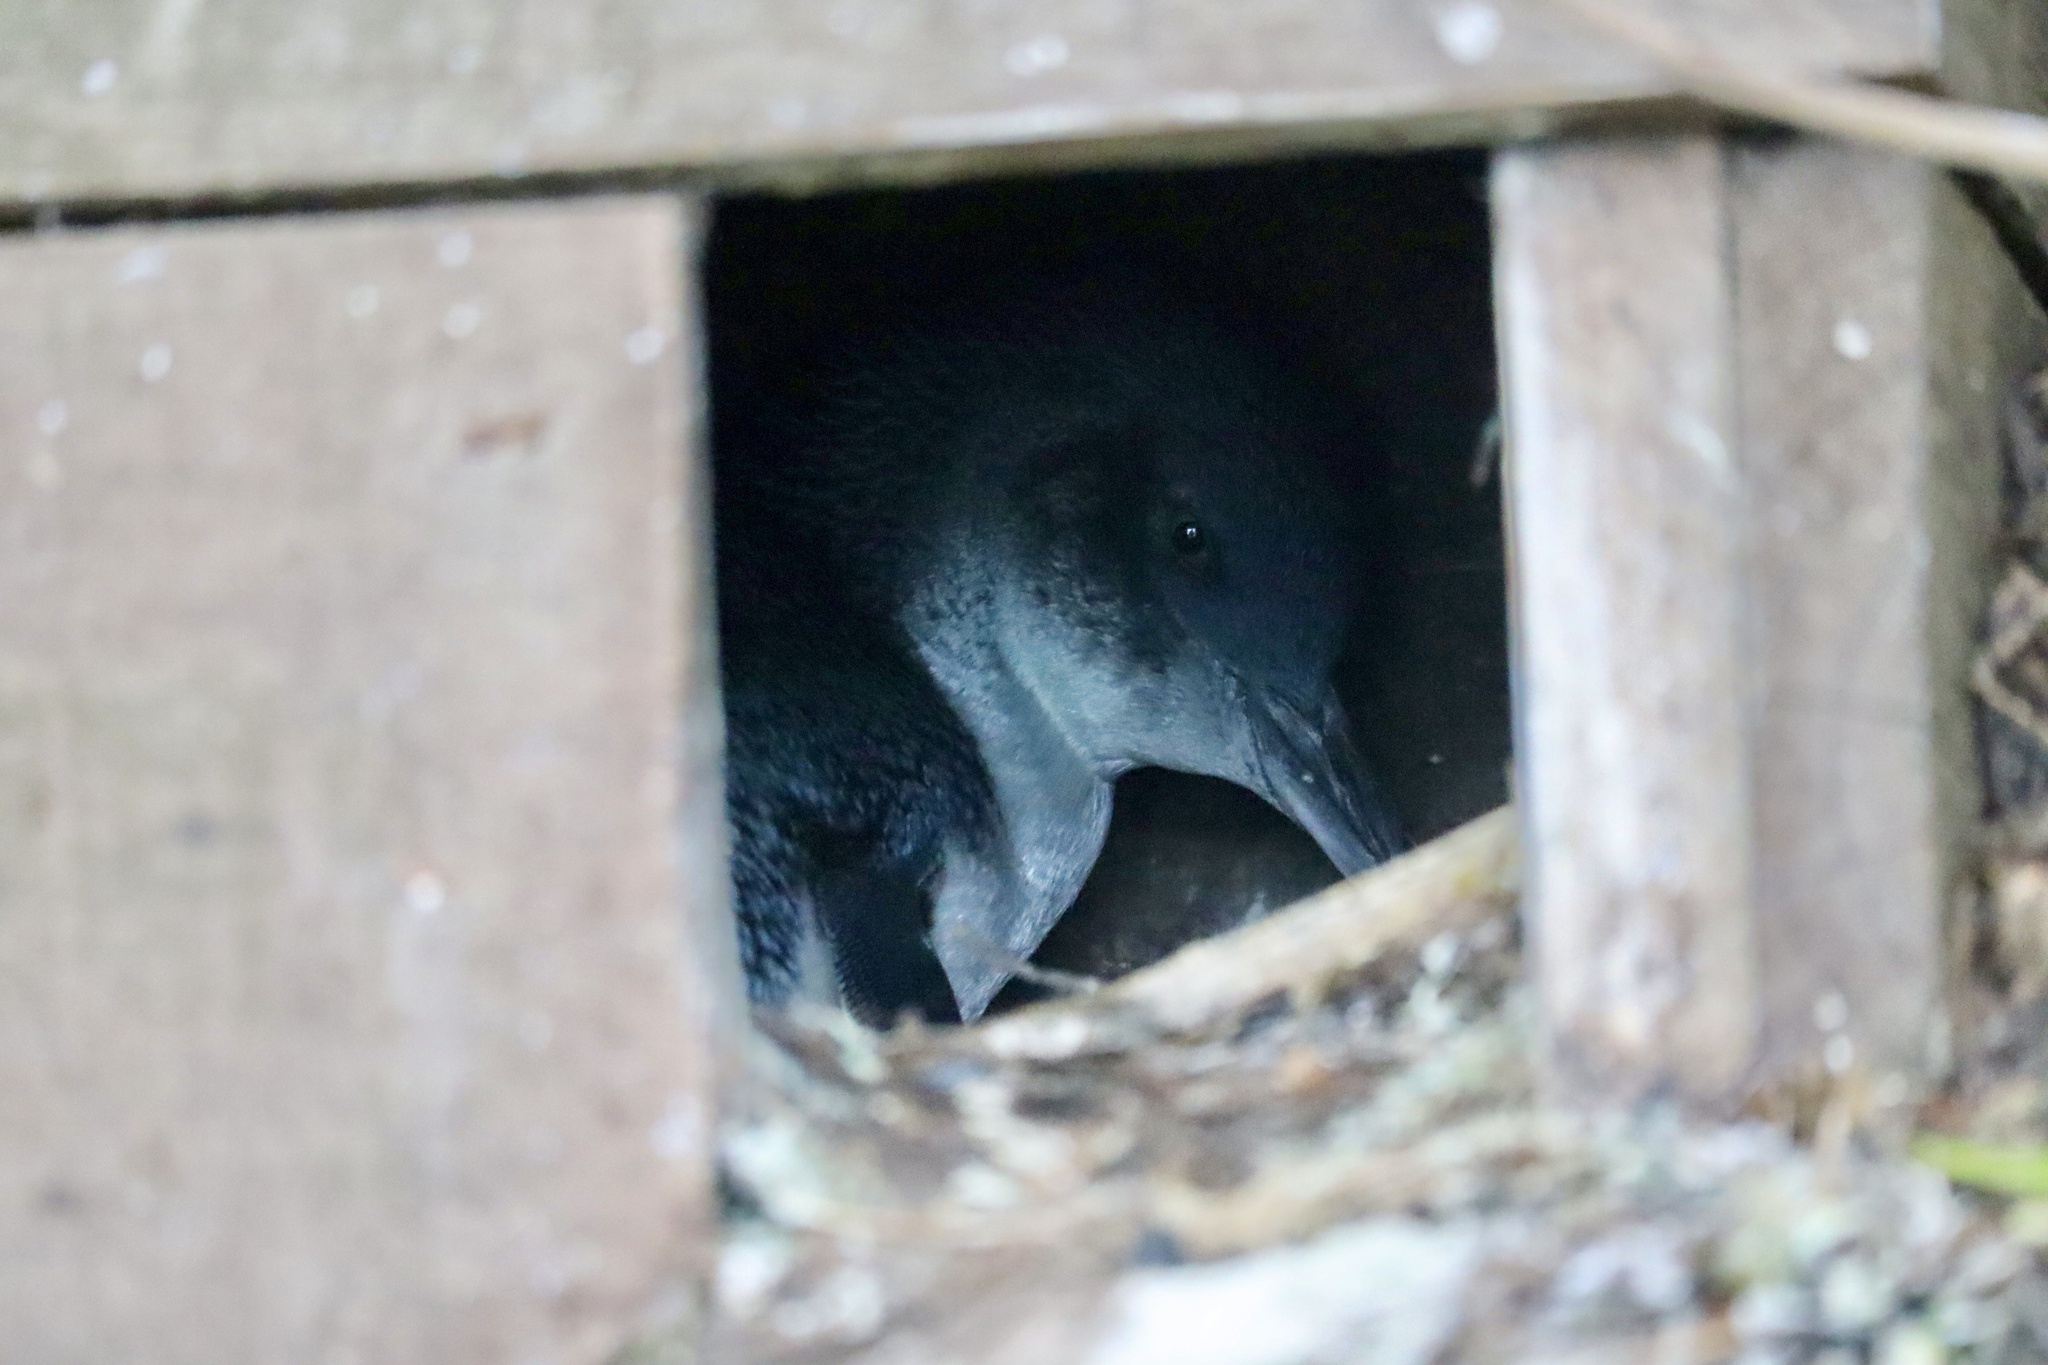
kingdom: Animalia
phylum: Chordata
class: Aves
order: Sphenisciformes
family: Spheniscidae
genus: Eudyptula
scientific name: Eudyptula minor
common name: Little penguin
